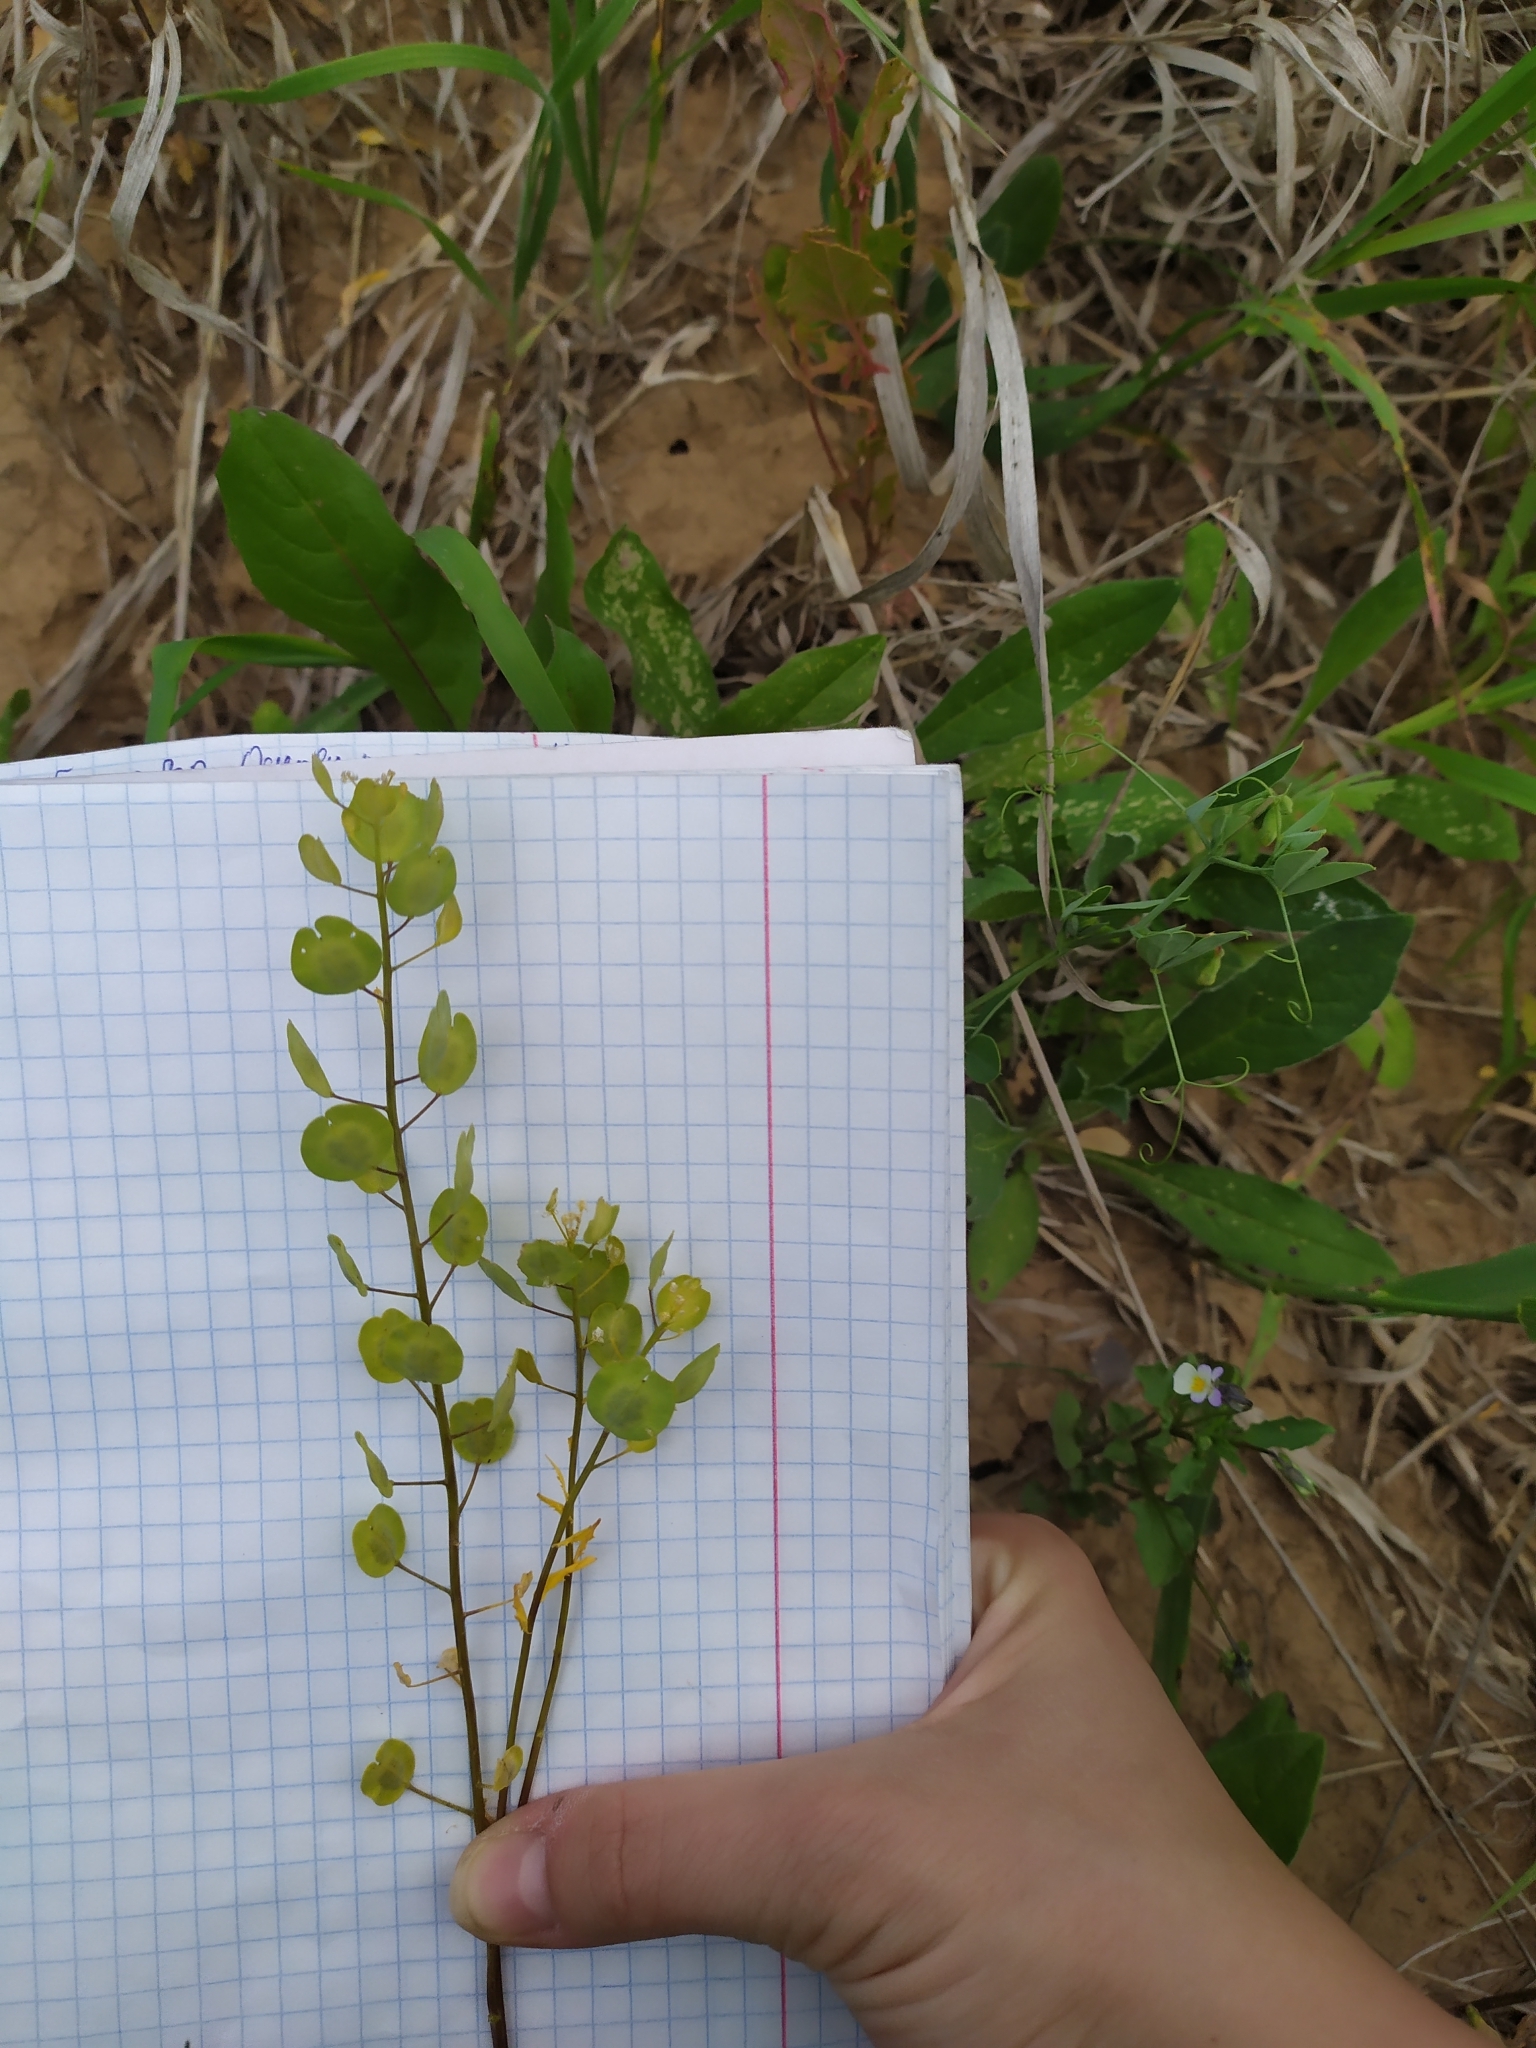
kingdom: Plantae
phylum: Tracheophyta
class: Magnoliopsida
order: Brassicales
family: Brassicaceae
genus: Thlaspi
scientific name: Thlaspi arvense
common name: Field pennycress
